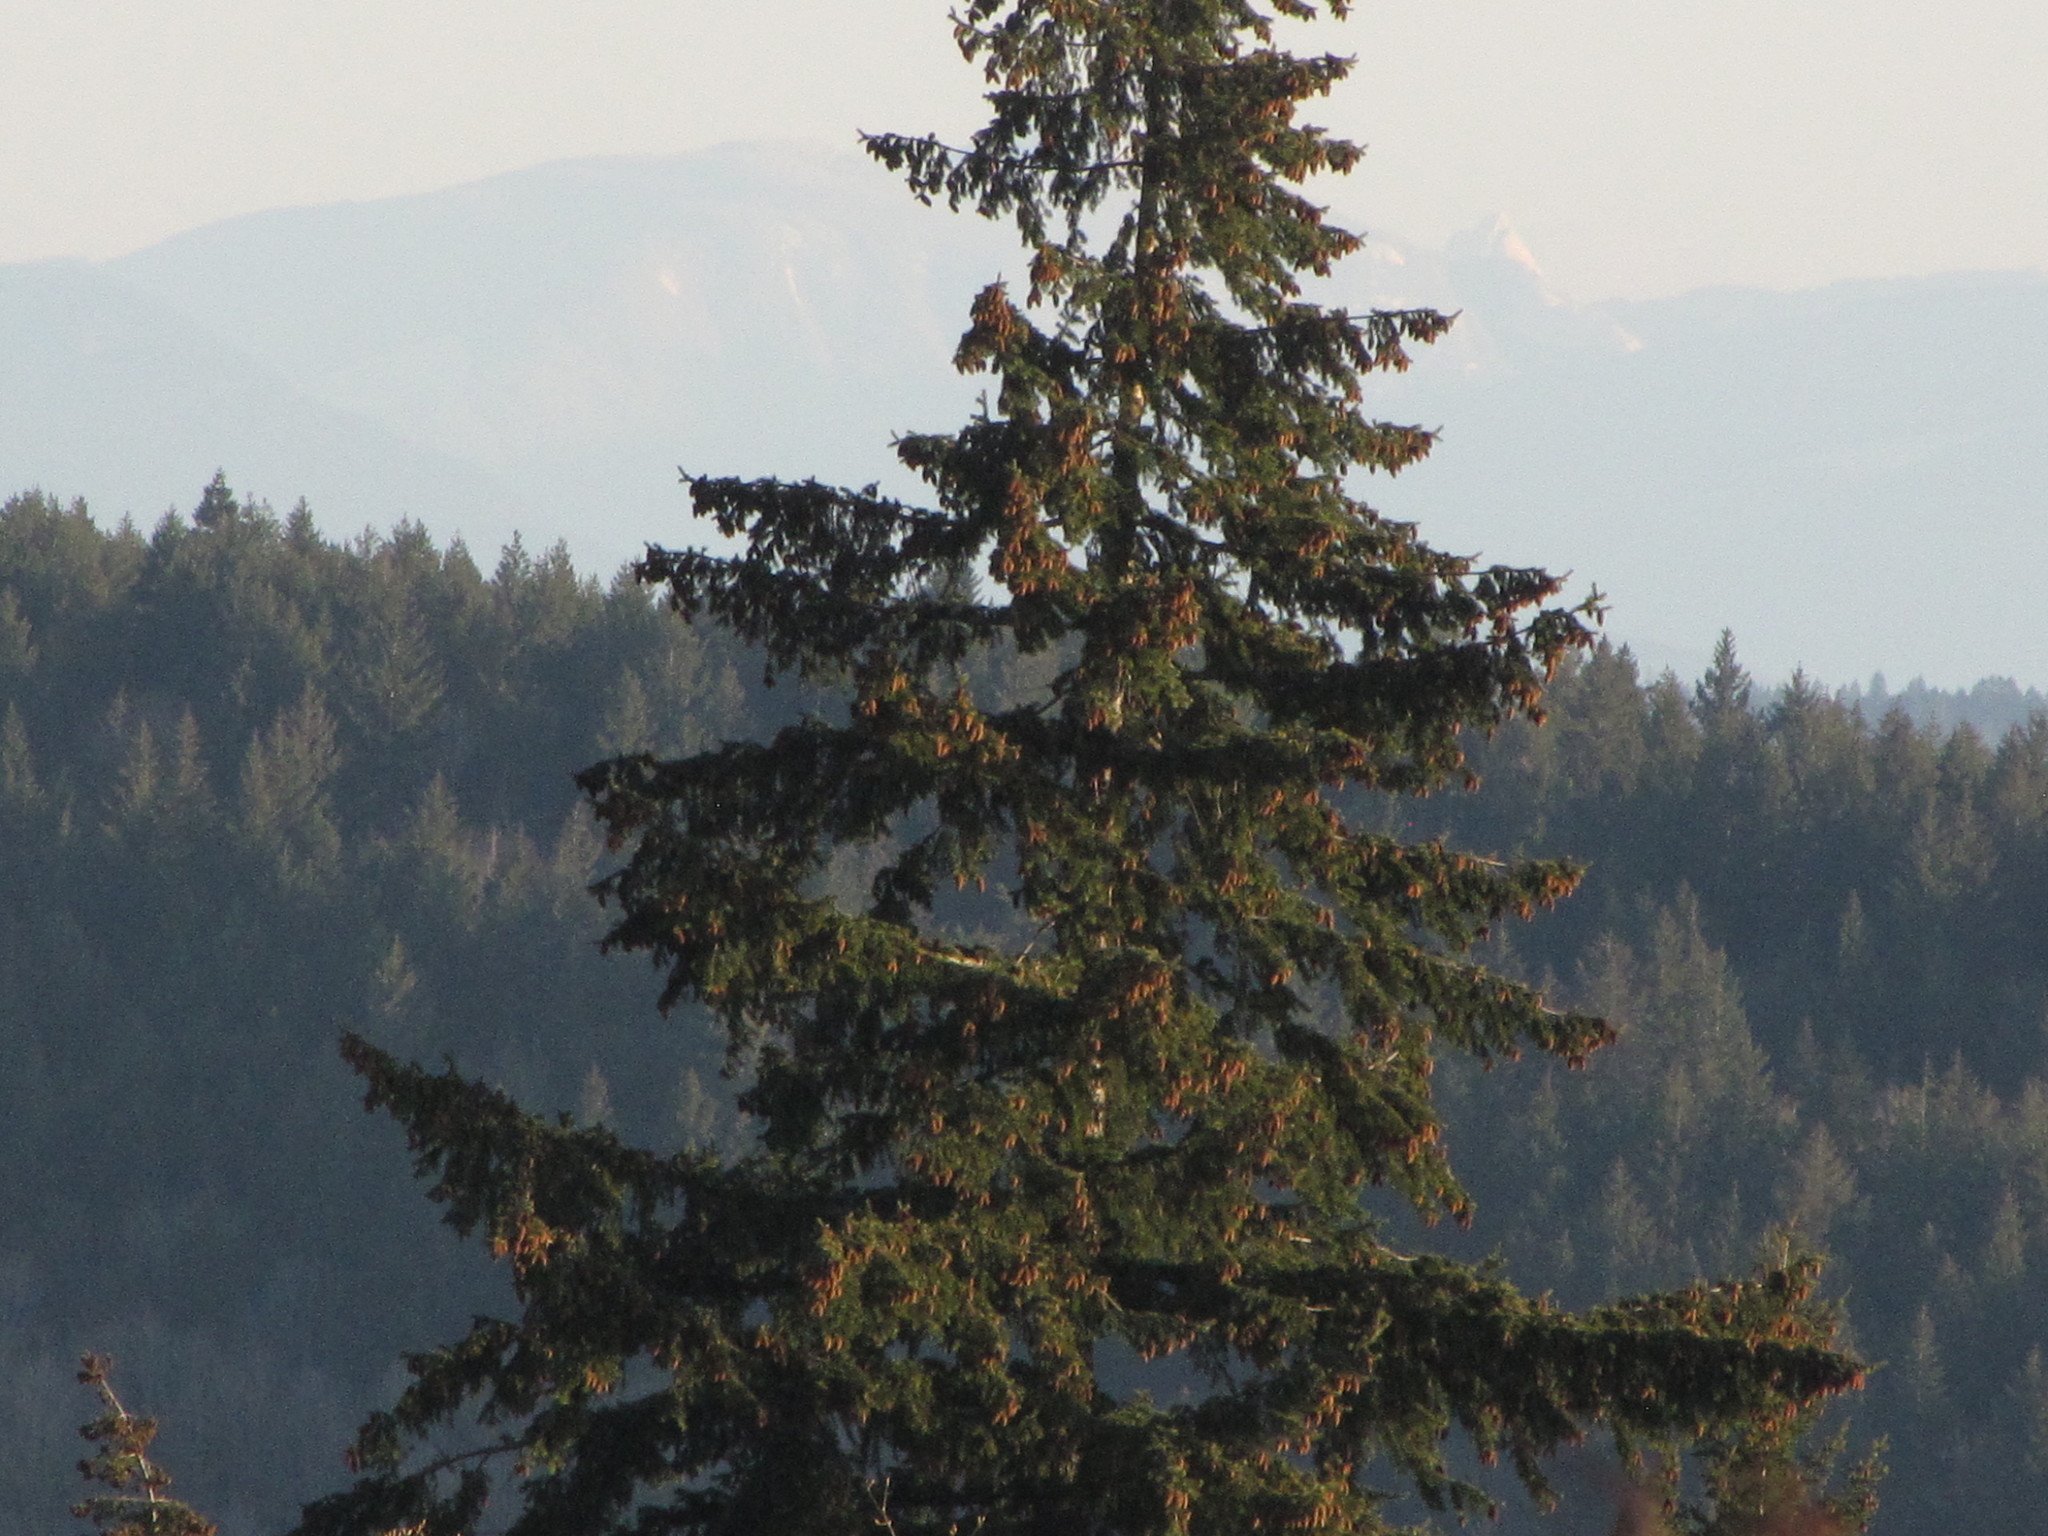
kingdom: Plantae
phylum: Tracheophyta
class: Pinopsida
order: Pinales
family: Pinaceae
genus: Pseudotsuga
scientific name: Pseudotsuga menziesii
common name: Douglas fir
